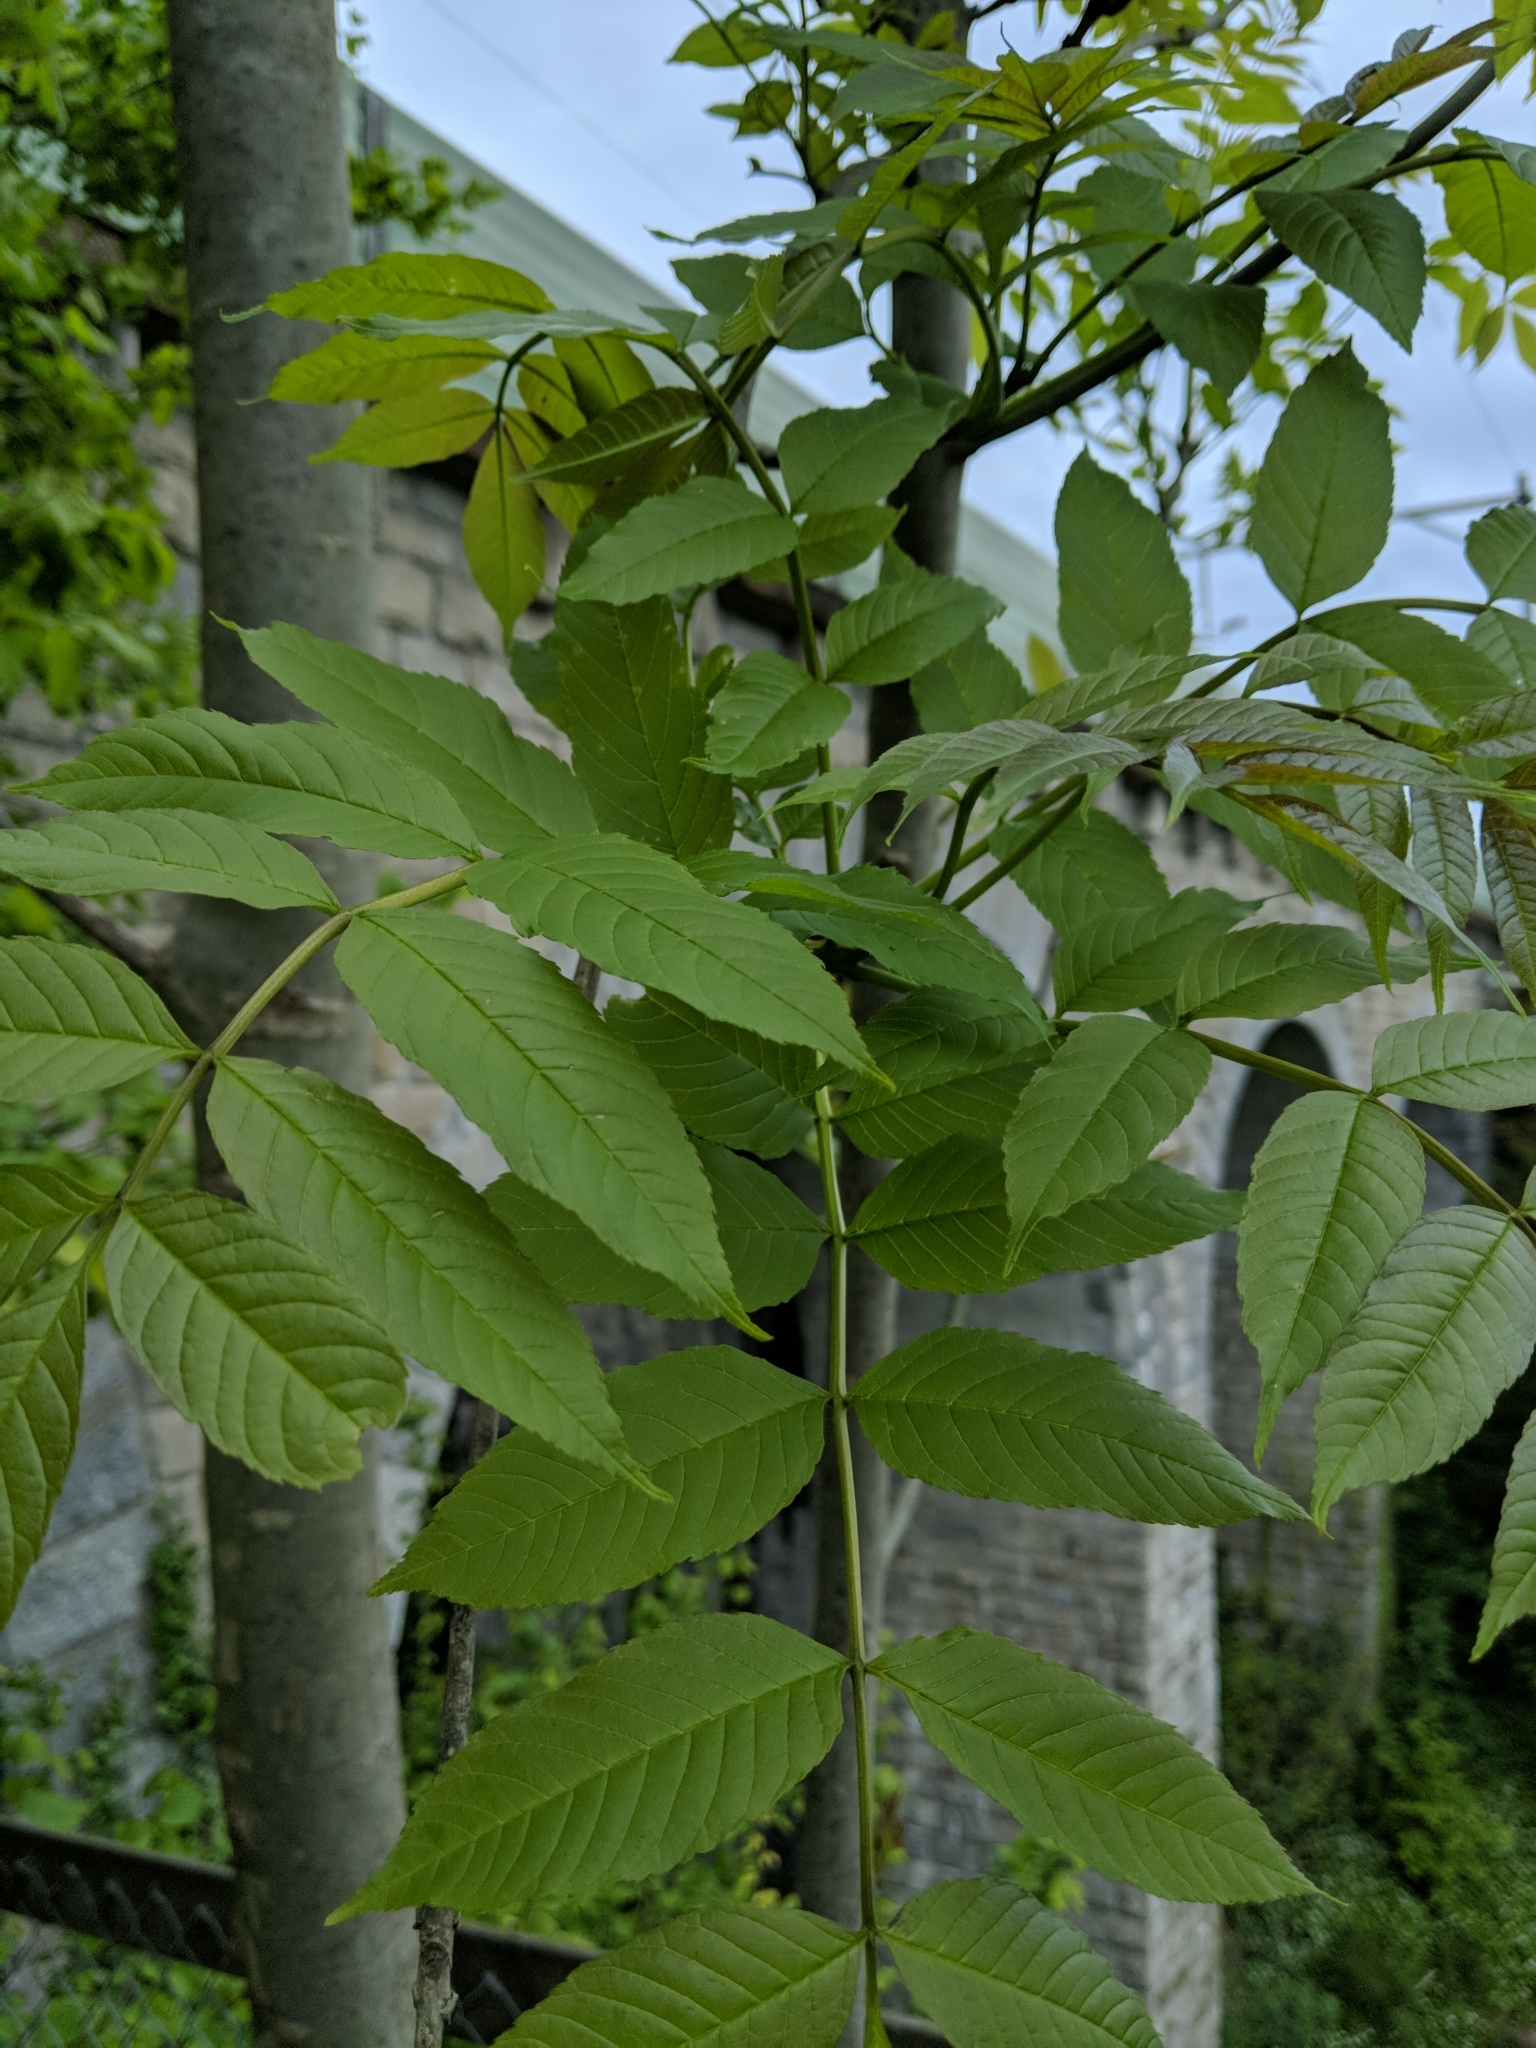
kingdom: Plantae
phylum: Tracheophyta
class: Magnoliopsida
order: Lamiales
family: Oleaceae
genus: Fraxinus
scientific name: Fraxinus excelsior
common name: European ash
